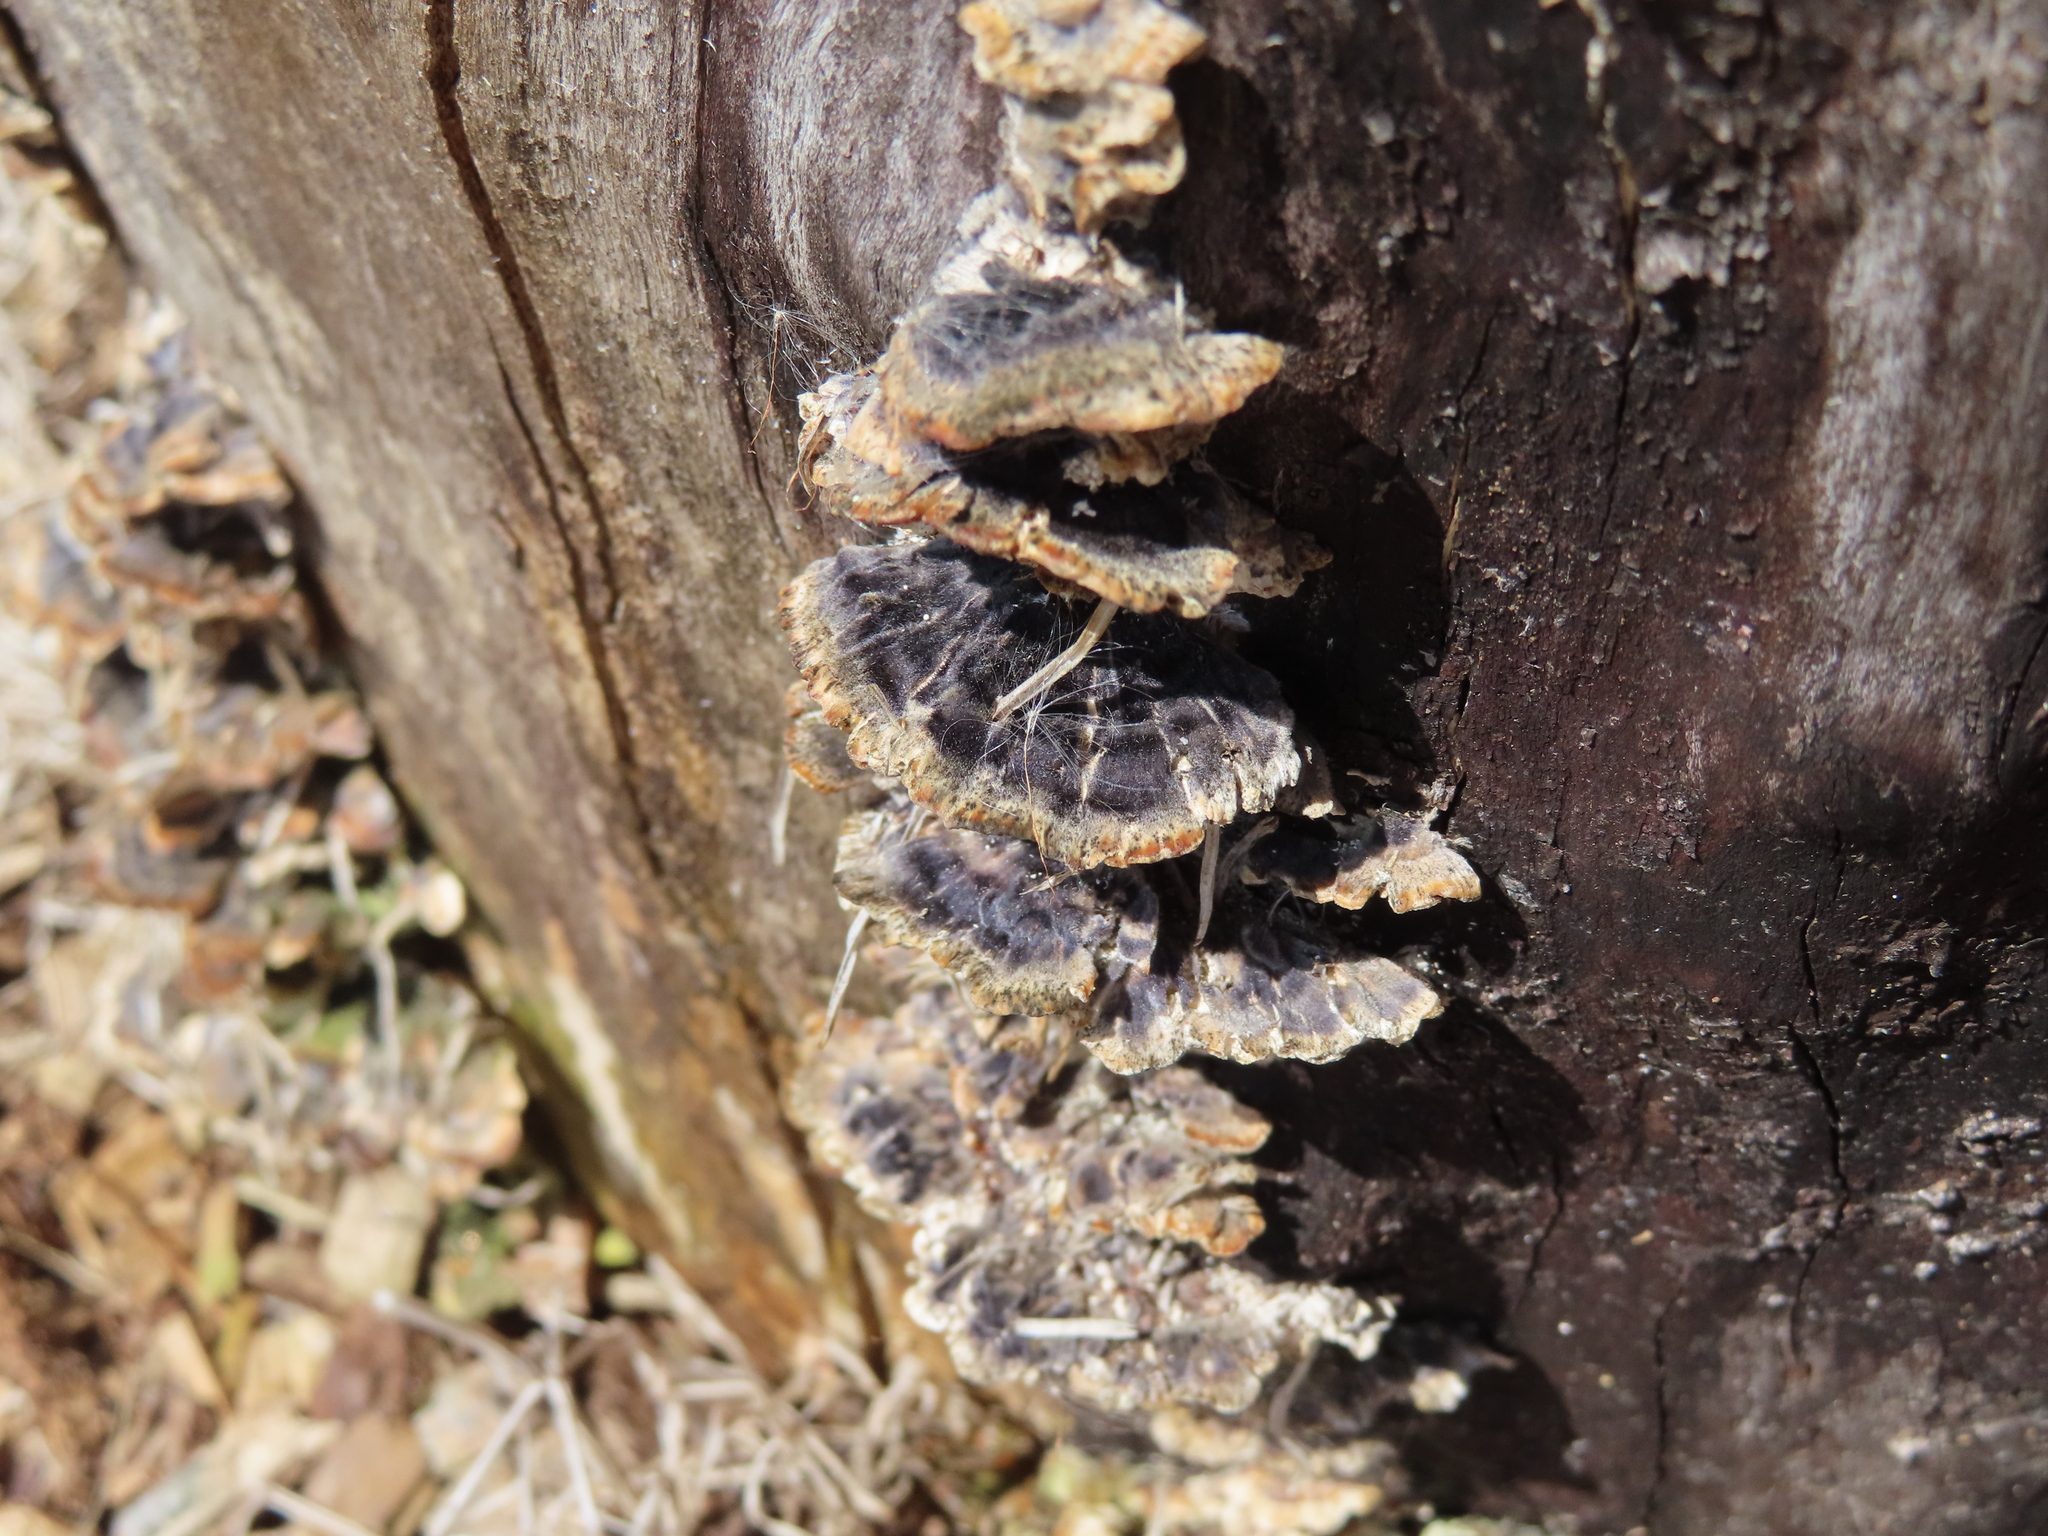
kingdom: Fungi
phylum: Basidiomycota
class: Agaricomycetes
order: Polyporales
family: Polyporaceae
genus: Trametes
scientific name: Trametes versicolor
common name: Turkeytail
